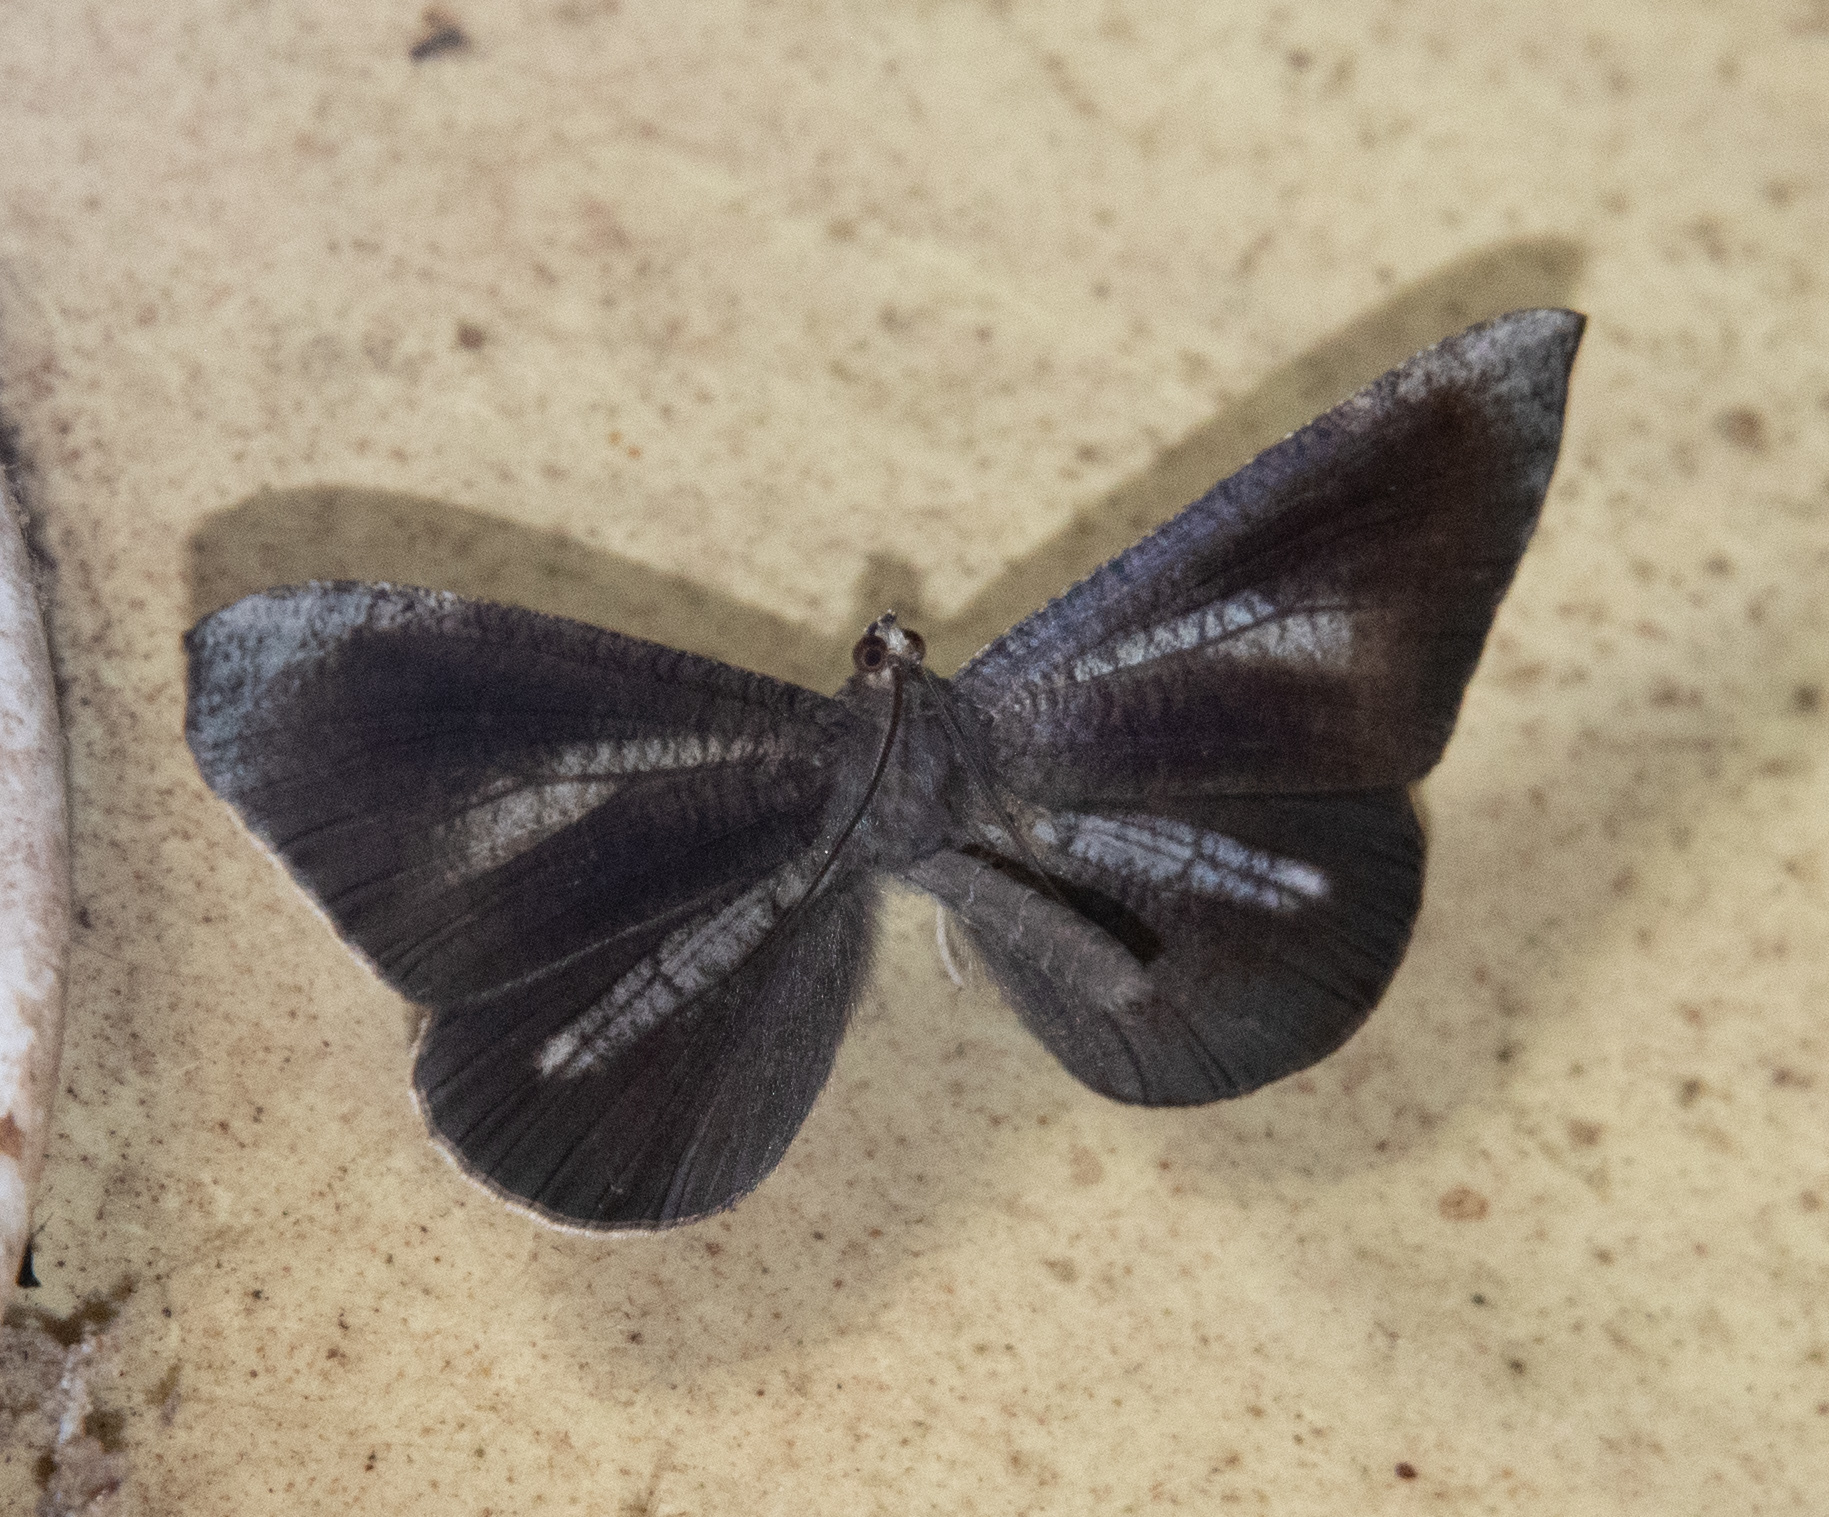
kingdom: Animalia
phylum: Arthropoda
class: Insecta
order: Lepidoptera
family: Hedylidae
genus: Macrosoma
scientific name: Macrosoma lucivittata
